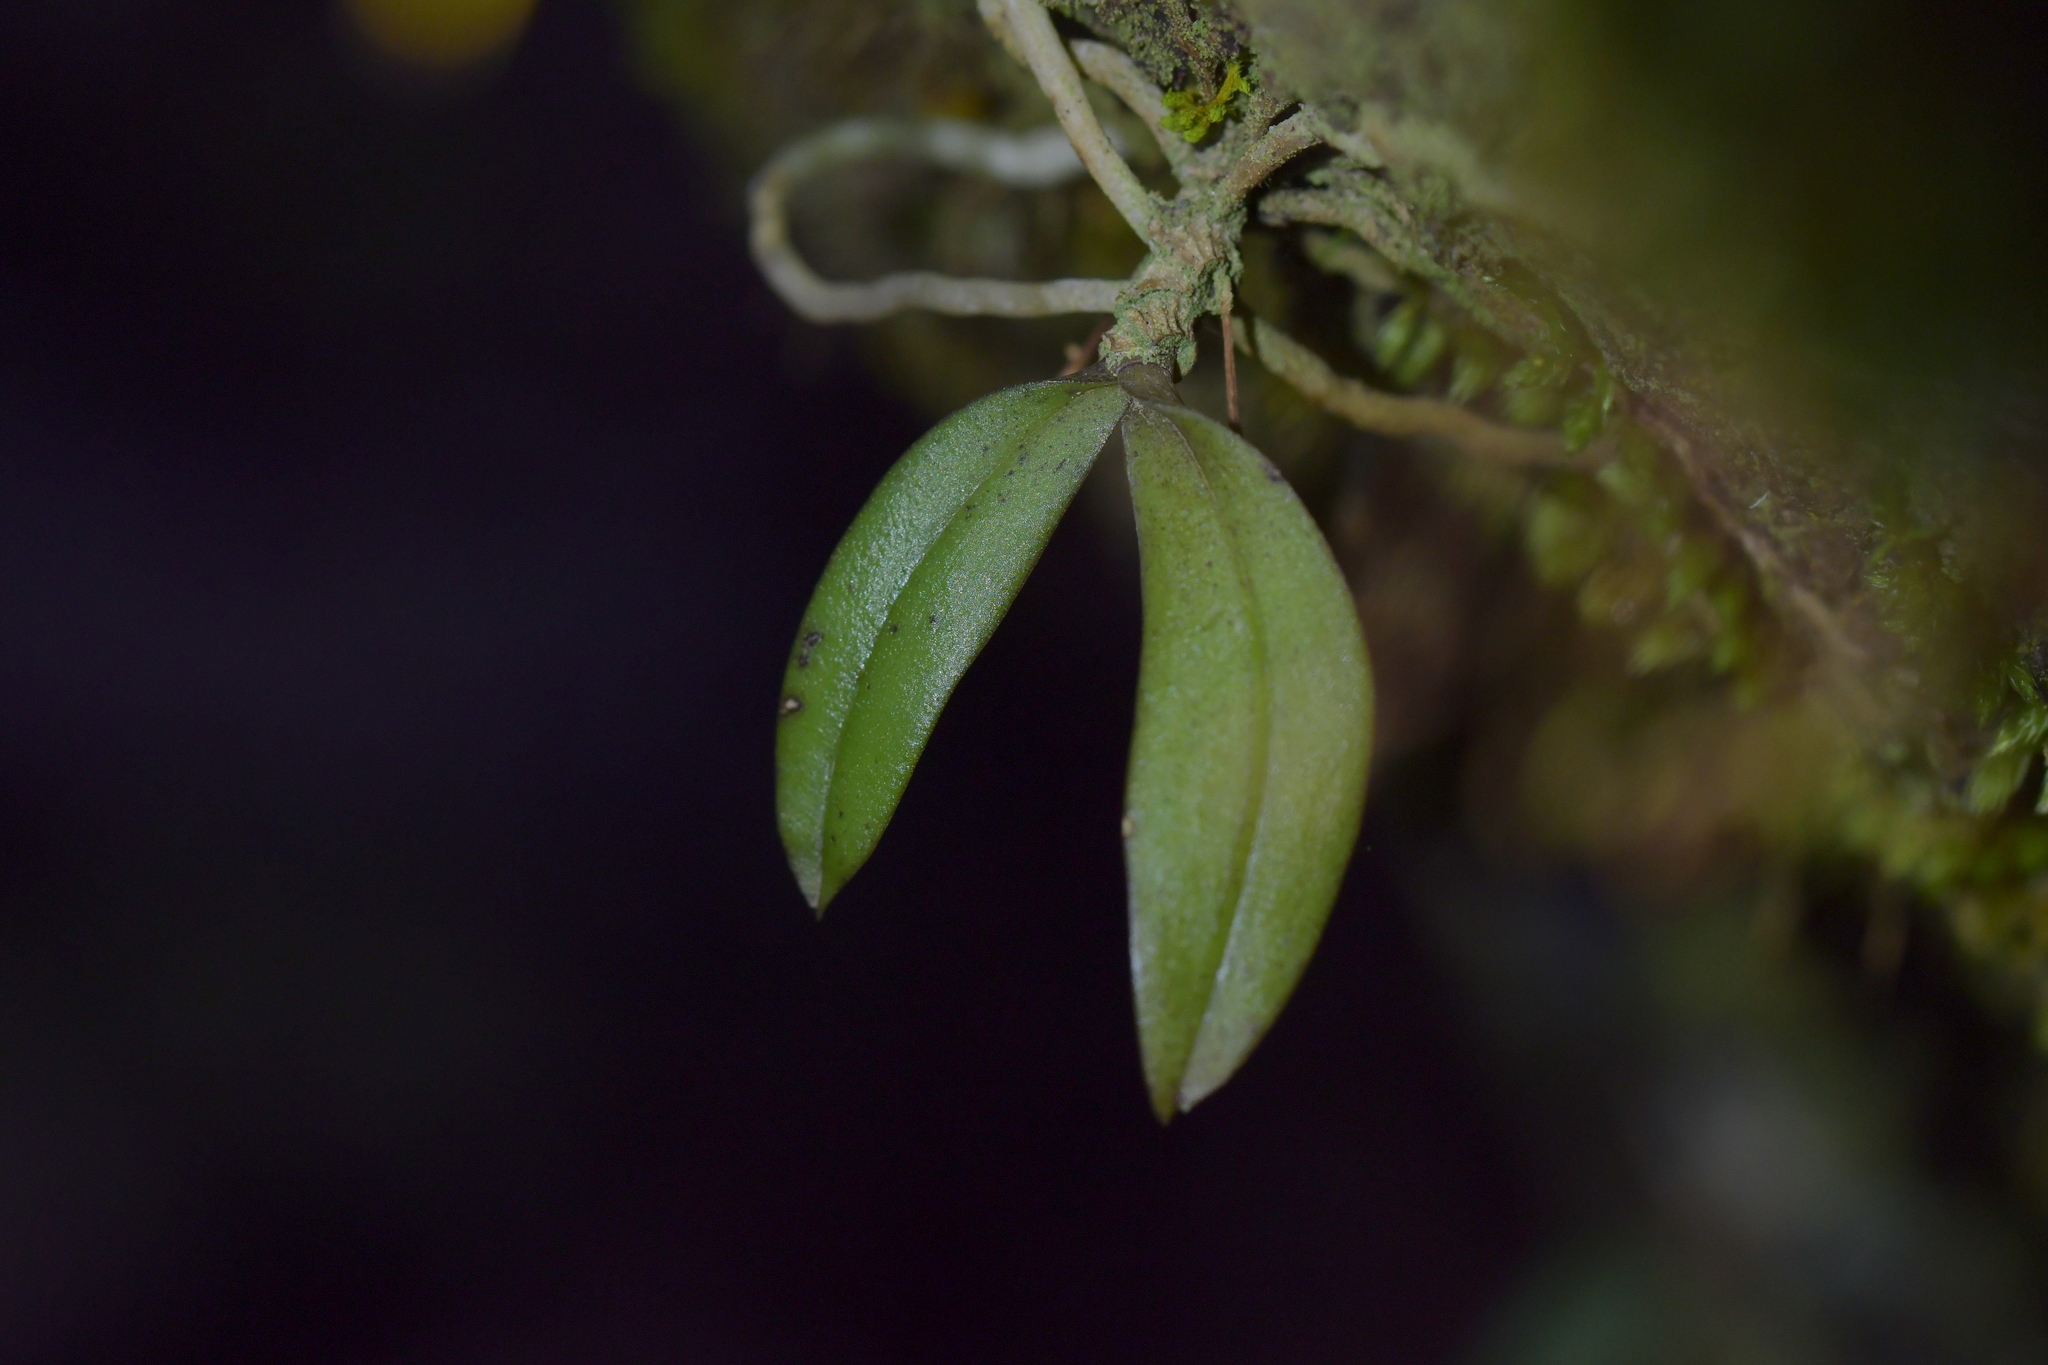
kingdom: Plantae
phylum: Tracheophyta
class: Liliopsida
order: Asparagales
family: Orchidaceae
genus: Drymoanthus
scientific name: Drymoanthus adversus
